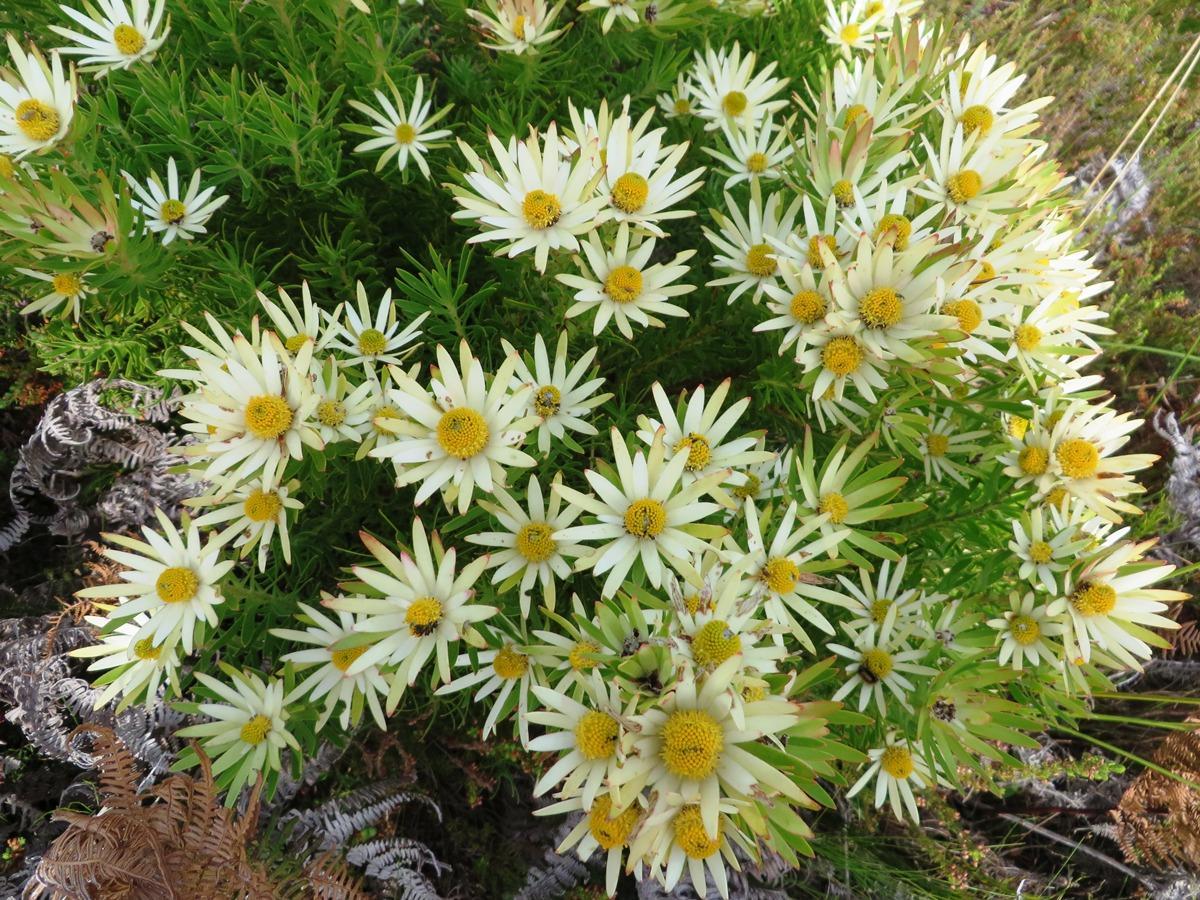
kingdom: Plantae
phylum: Tracheophyta
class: Magnoliopsida
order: Proteales
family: Proteaceae
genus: Leucadendron
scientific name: Leucadendron spissifolium
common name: Spear-leaf conebush
